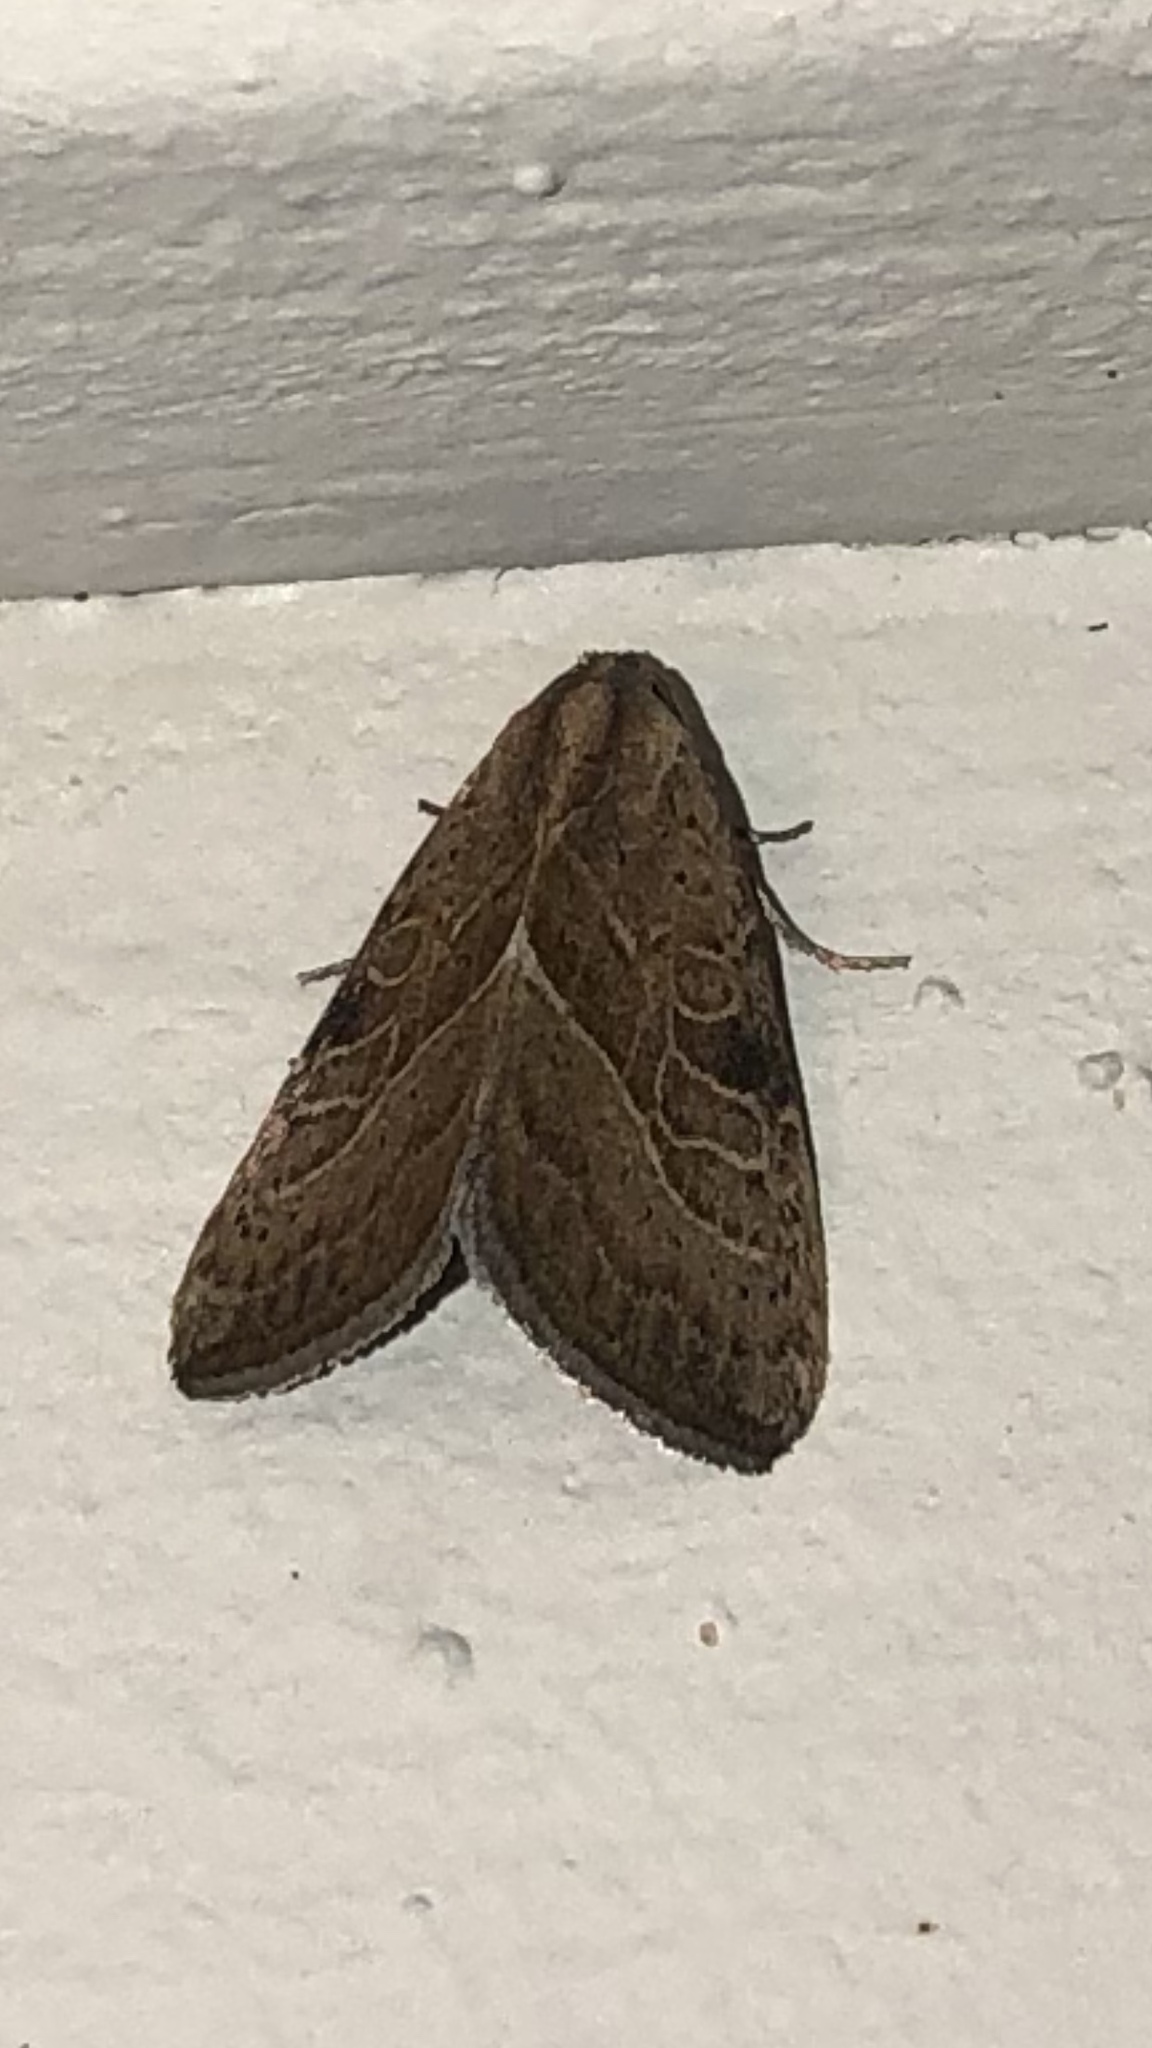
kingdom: Animalia
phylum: Arthropoda
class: Insecta
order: Lepidoptera
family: Noctuidae
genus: Galgula
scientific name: Galgula partita
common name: Wedgeling
